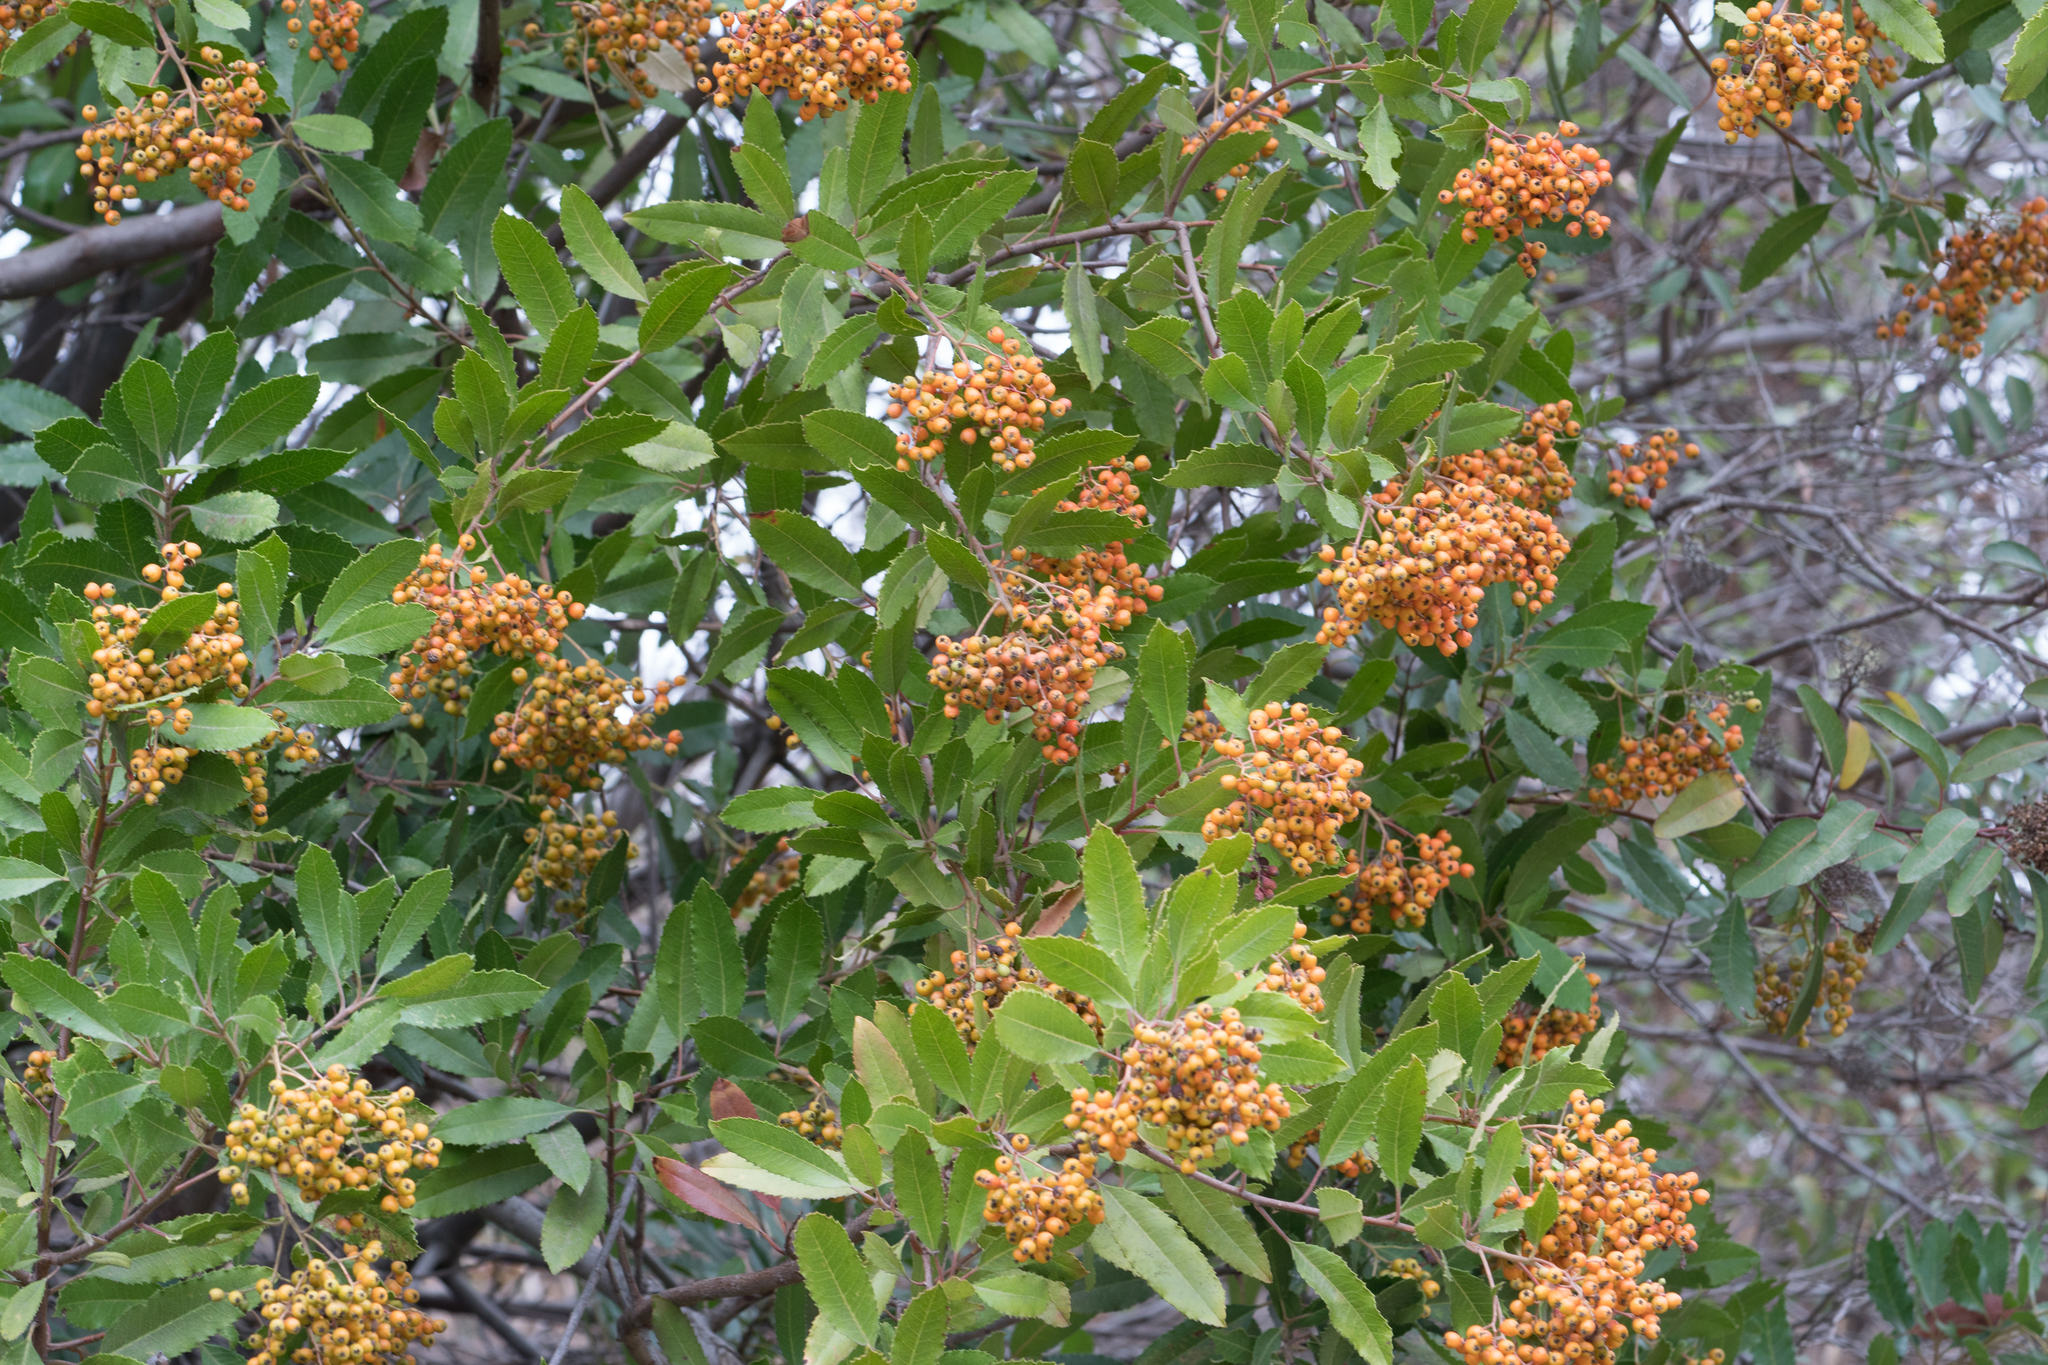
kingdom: Plantae
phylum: Tracheophyta
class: Magnoliopsida
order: Rosales
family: Rosaceae
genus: Heteromeles
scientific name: Heteromeles arbutifolia
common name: California-holly
